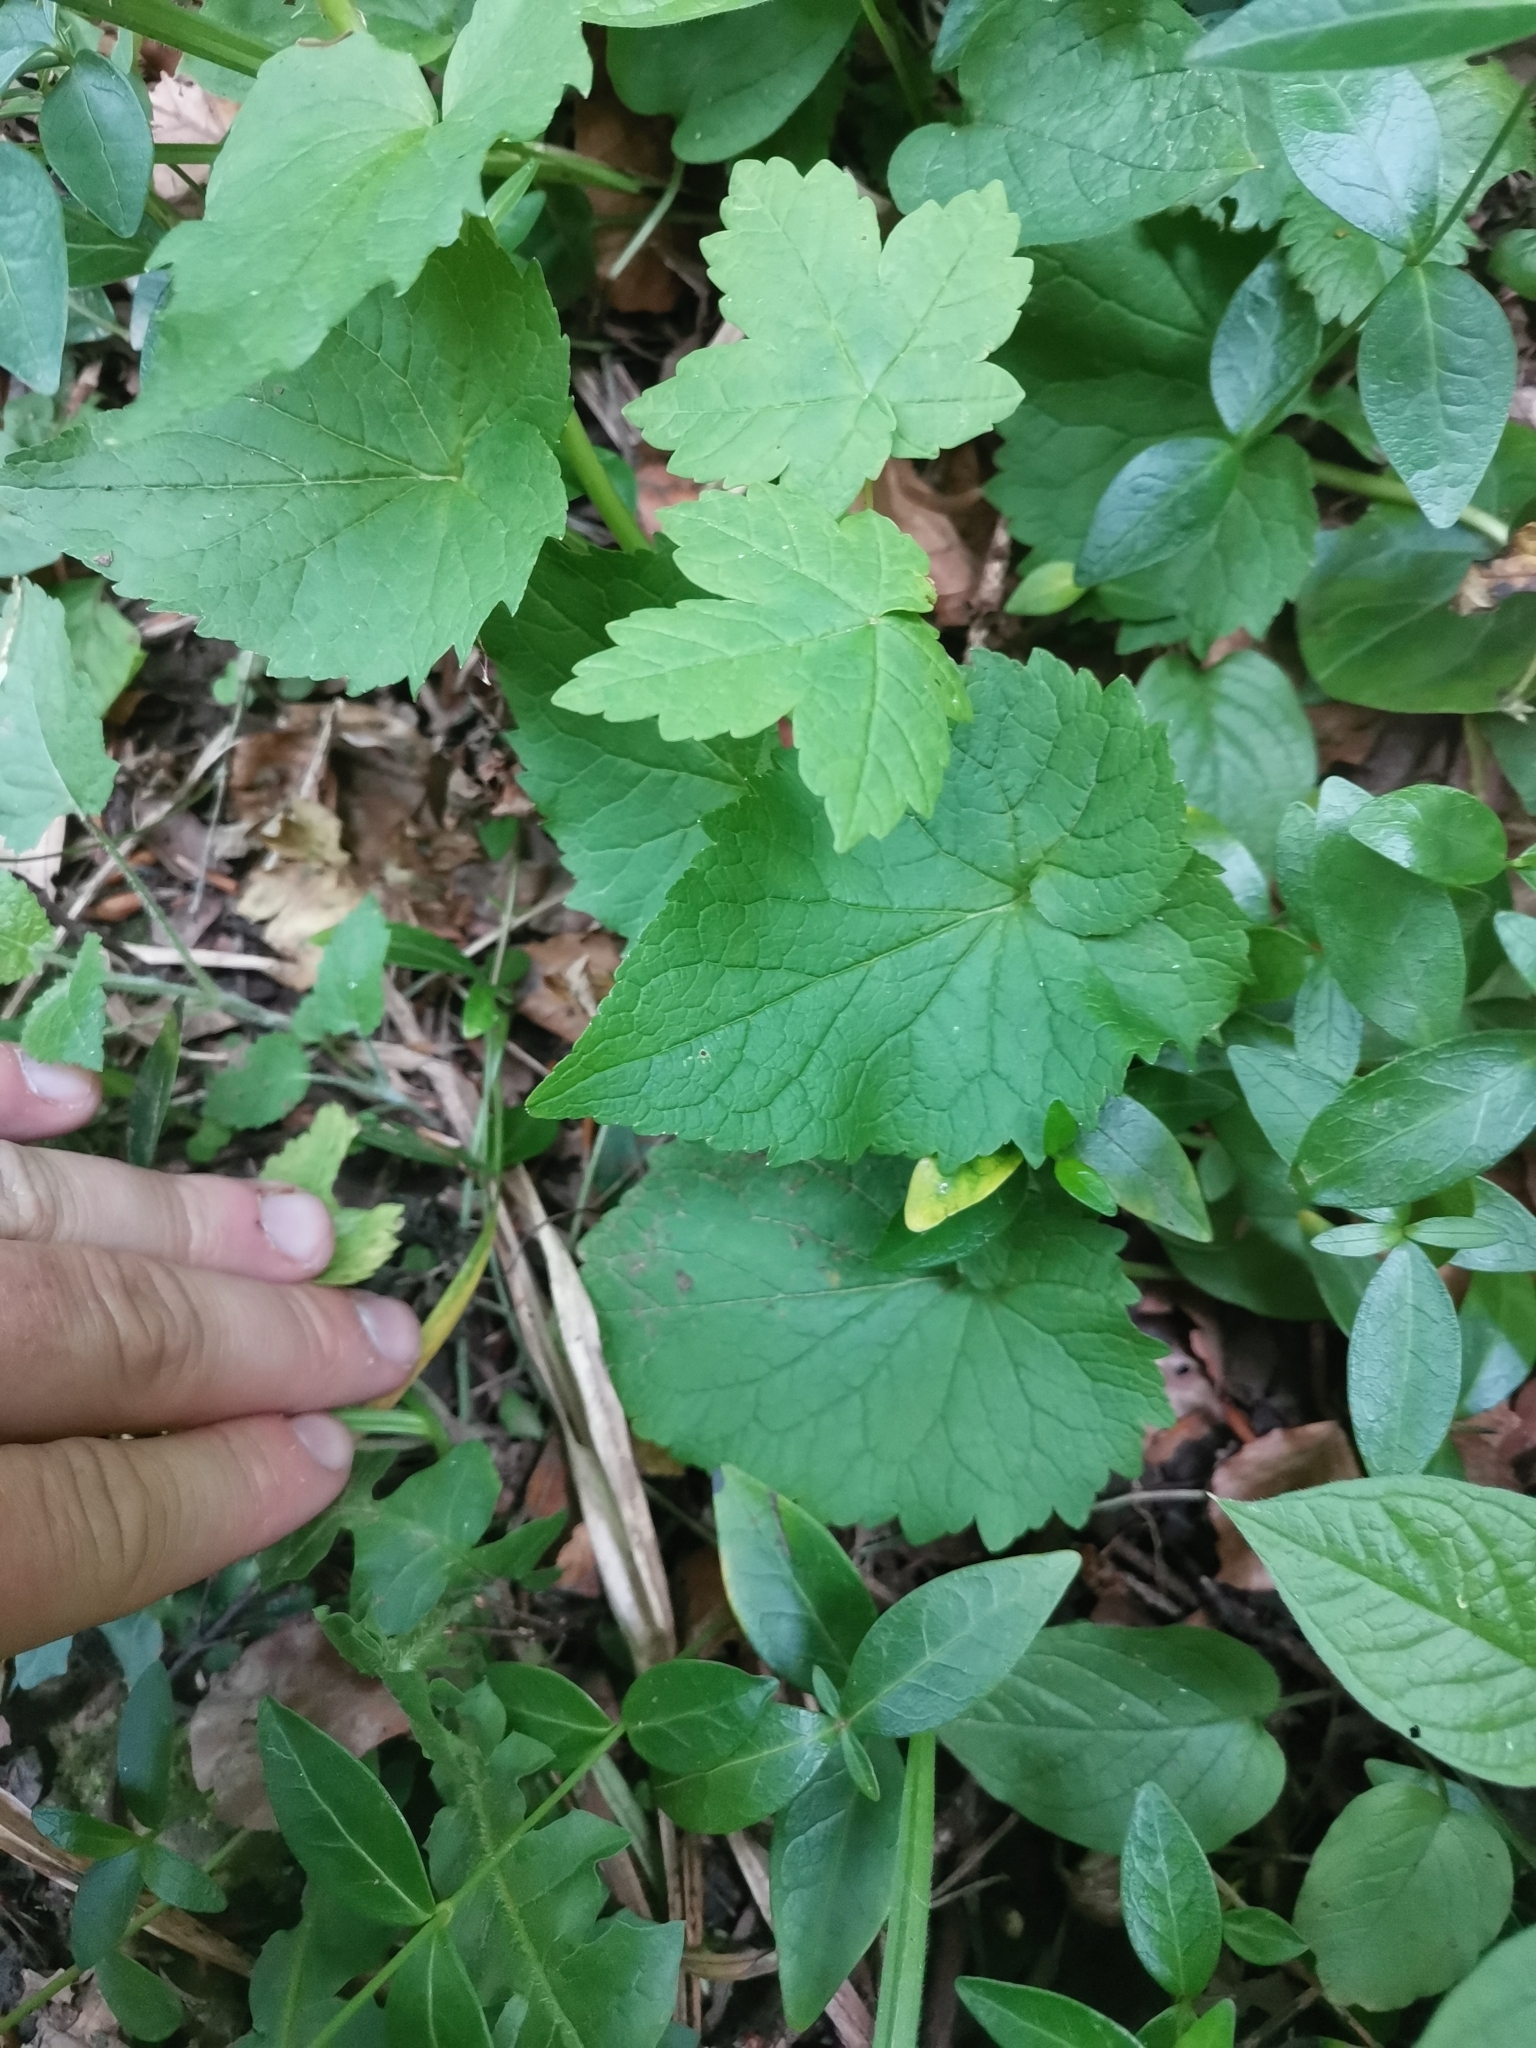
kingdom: Plantae
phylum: Tracheophyta
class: Magnoliopsida
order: Asterales
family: Campanulaceae
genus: Phyteuma
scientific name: Phyteuma ovatum
